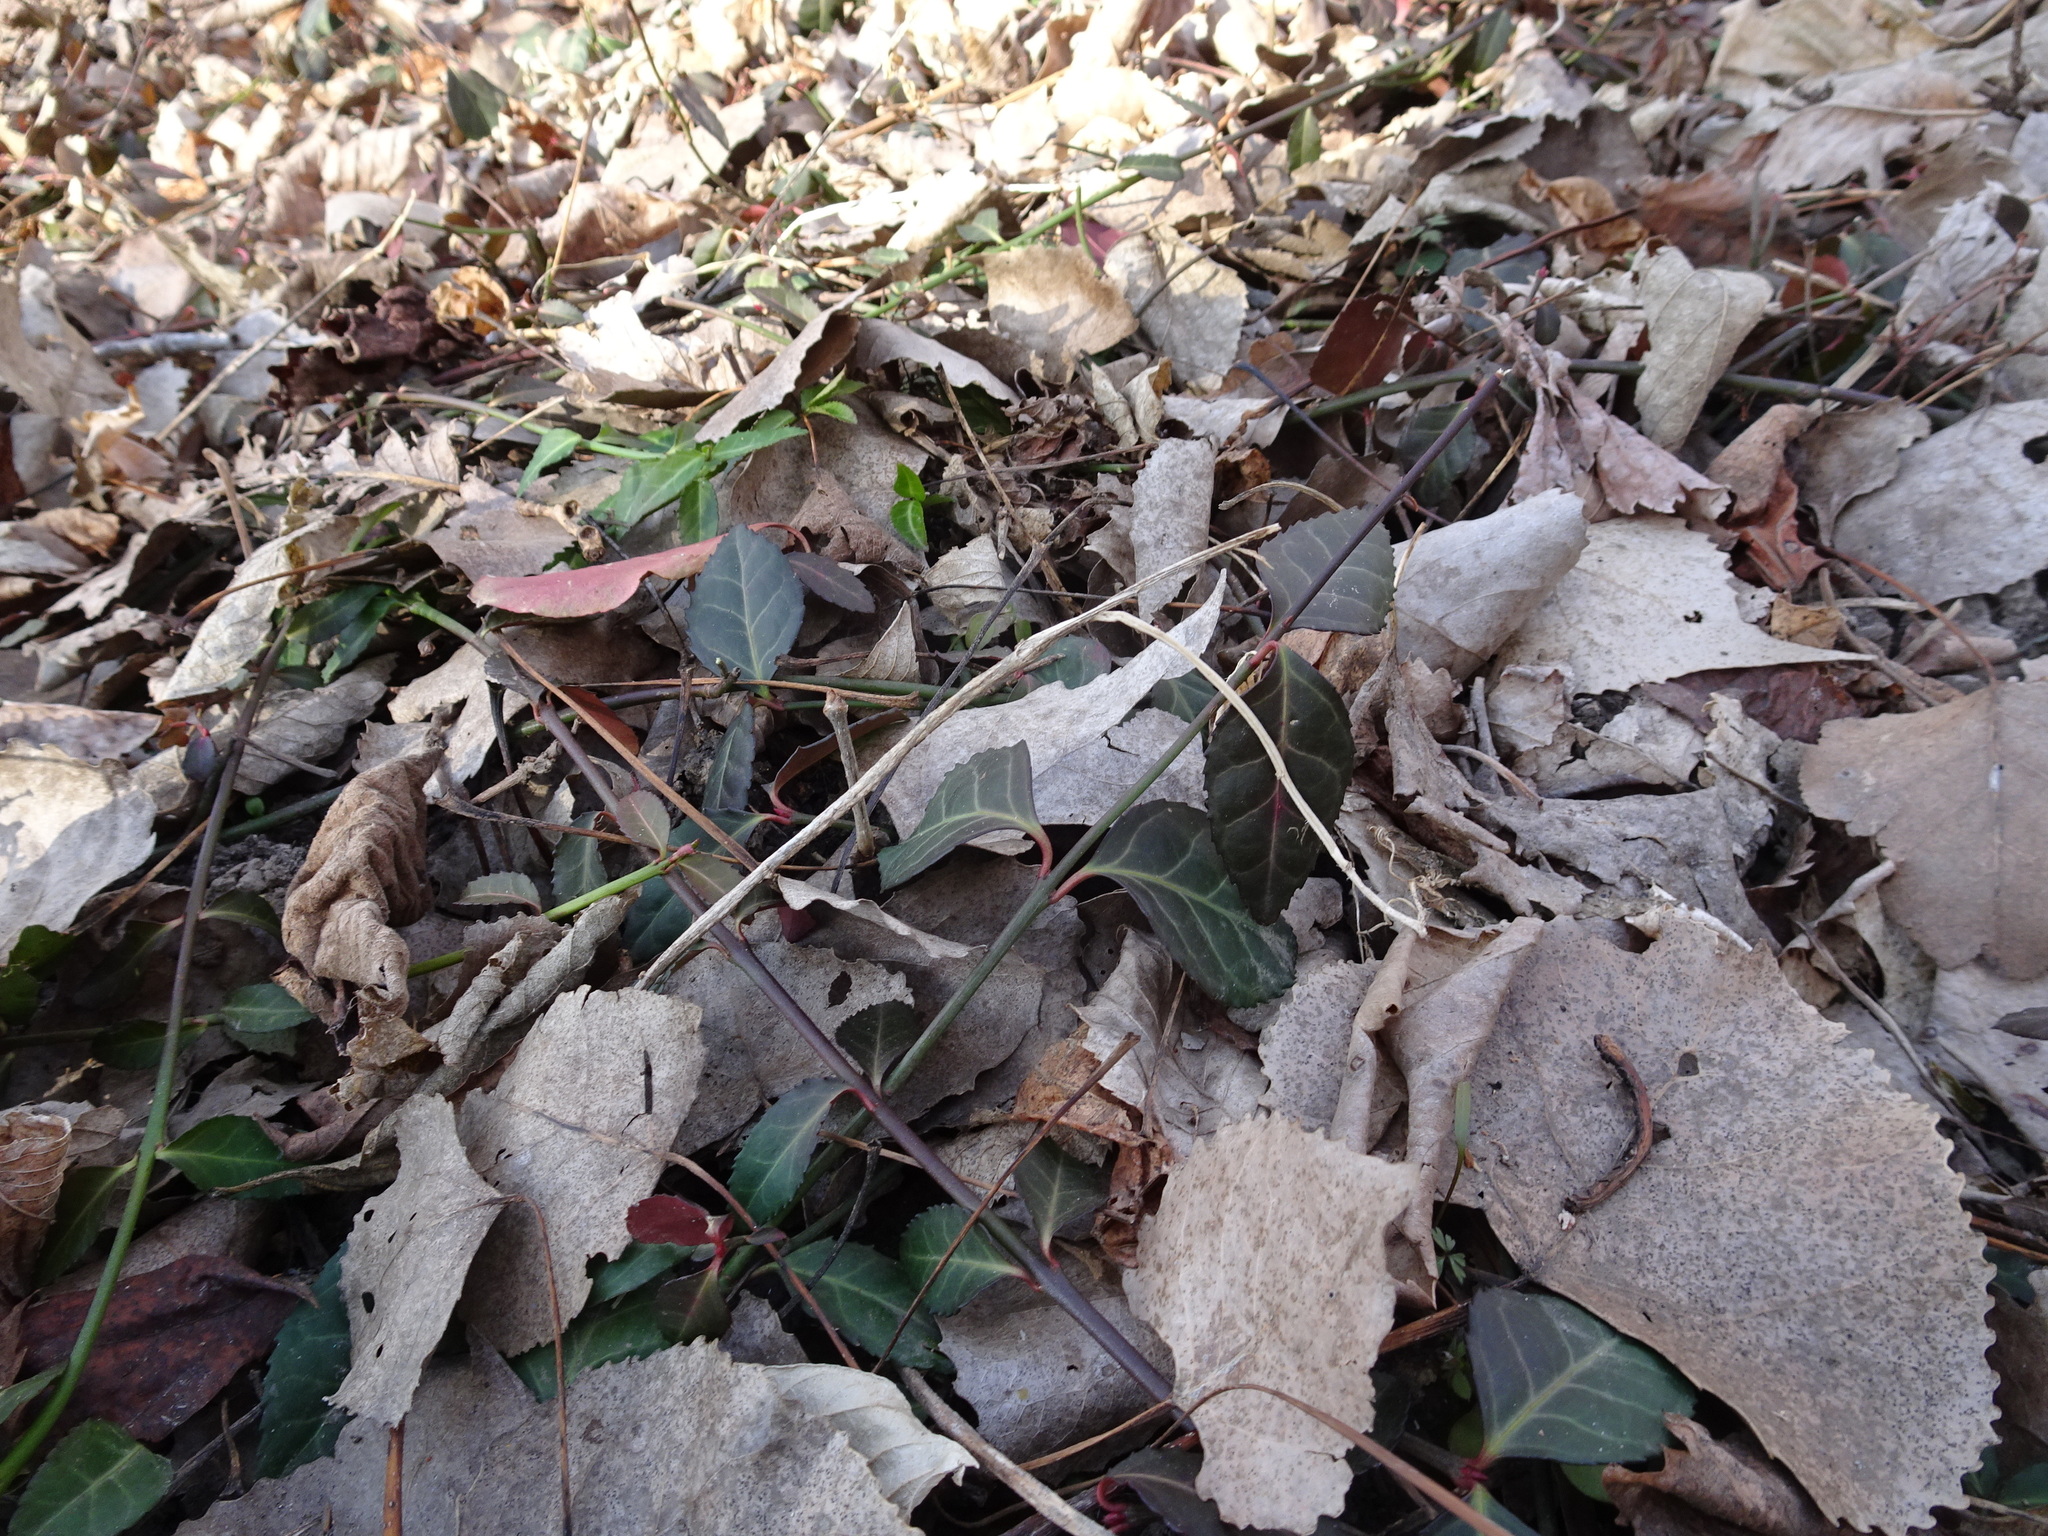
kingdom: Plantae
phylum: Tracheophyta
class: Magnoliopsida
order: Celastrales
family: Celastraceae
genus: Euonymus
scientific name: Euonymus fortunei
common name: Climbing euonymus
